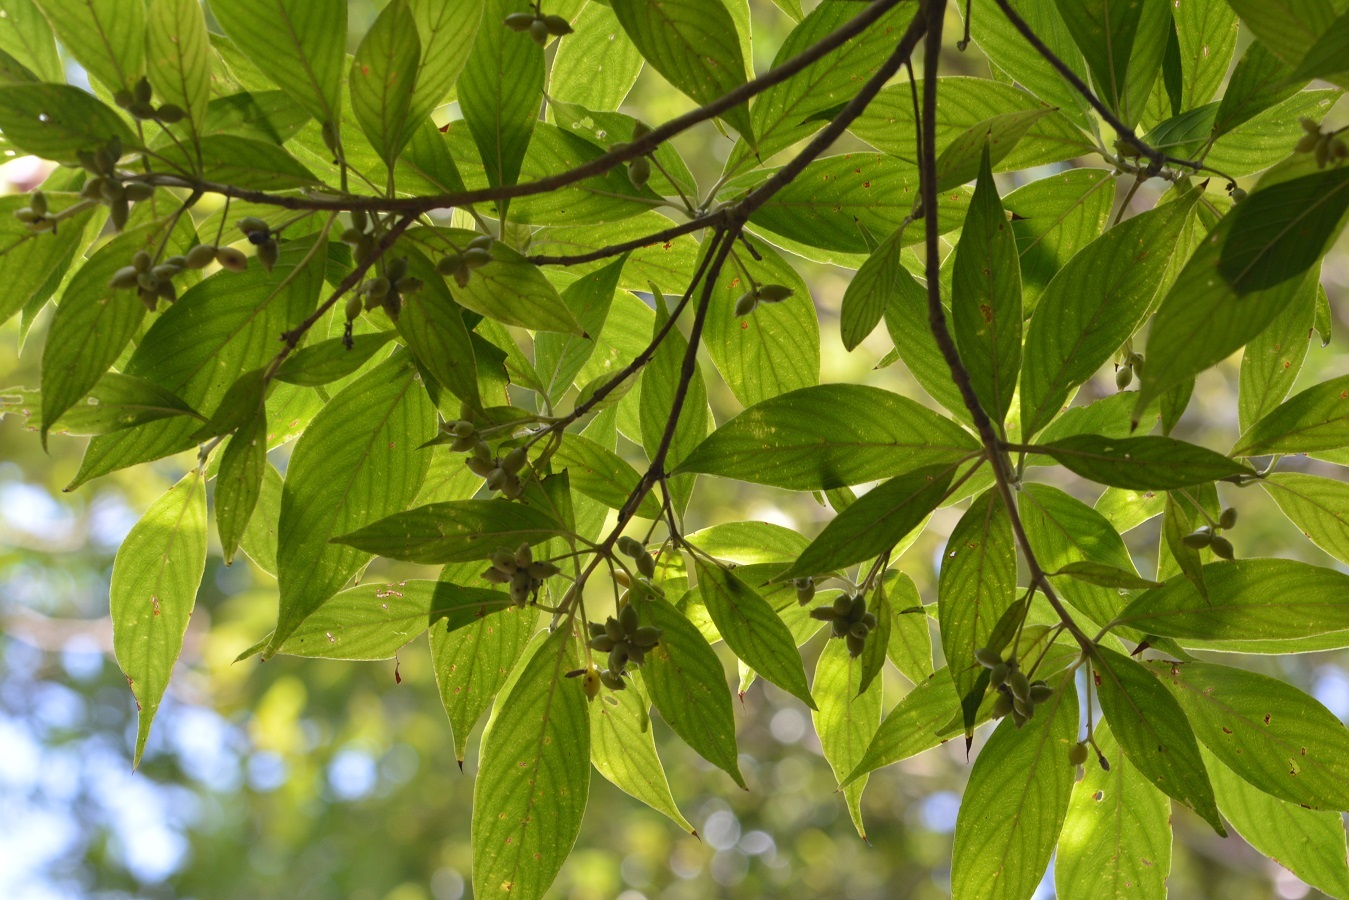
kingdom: Plantae
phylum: Tracheophyta
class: Magnoliopsida
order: Gentianales
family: Rubiaceae
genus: Arachnothryx
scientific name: Arachnothryx chiapensis
